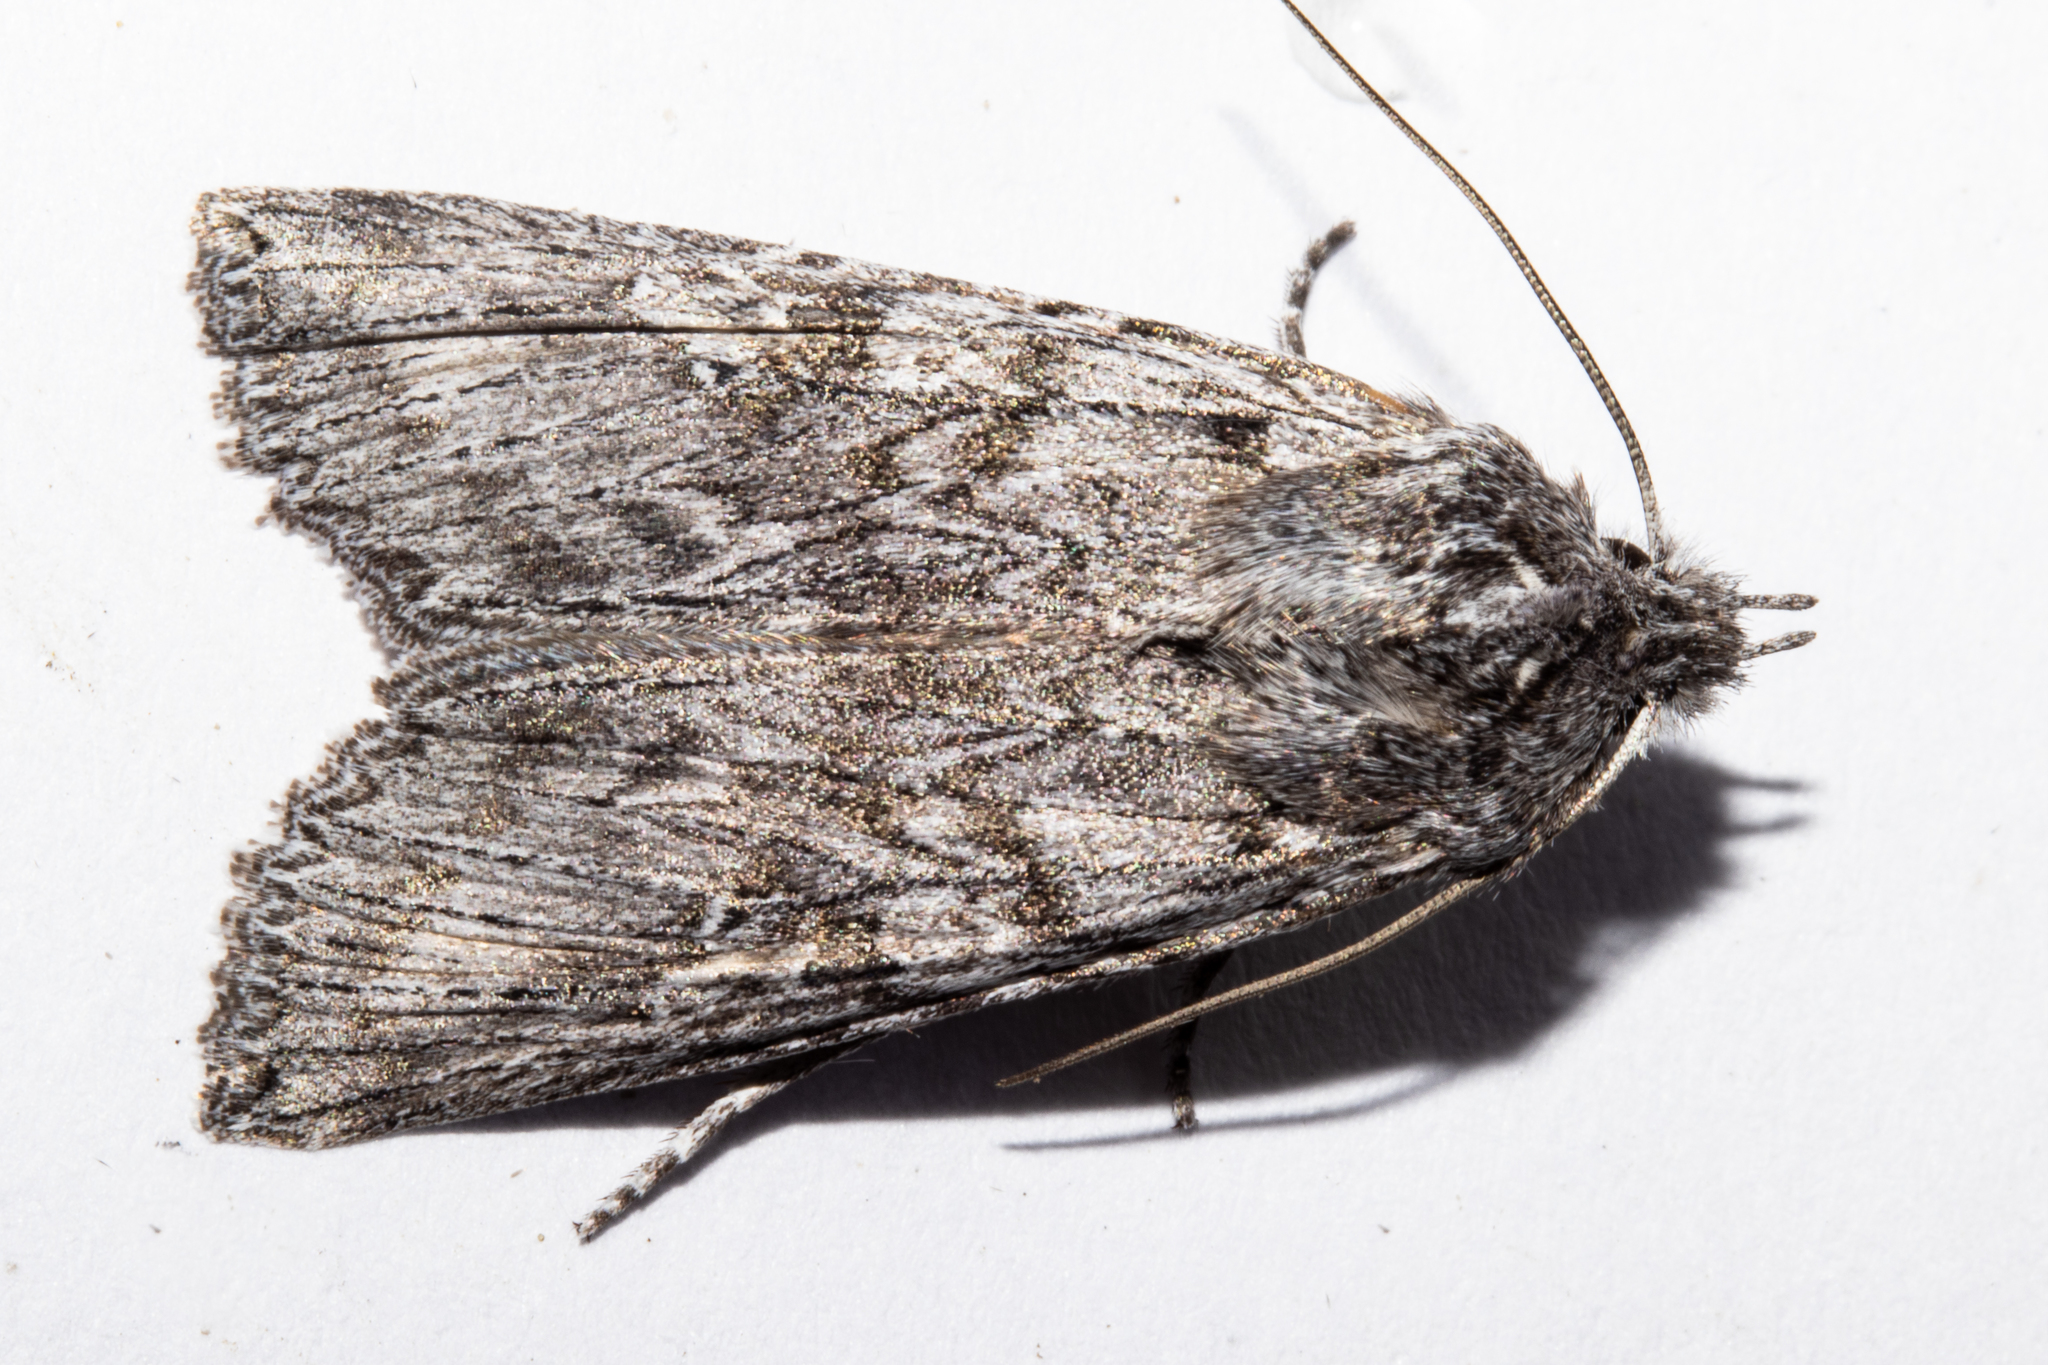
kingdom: Animalia
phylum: Arthropoda
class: Insecta
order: Lepidoptera
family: Noctuidae
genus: Physetica
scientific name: Physetica phricias
